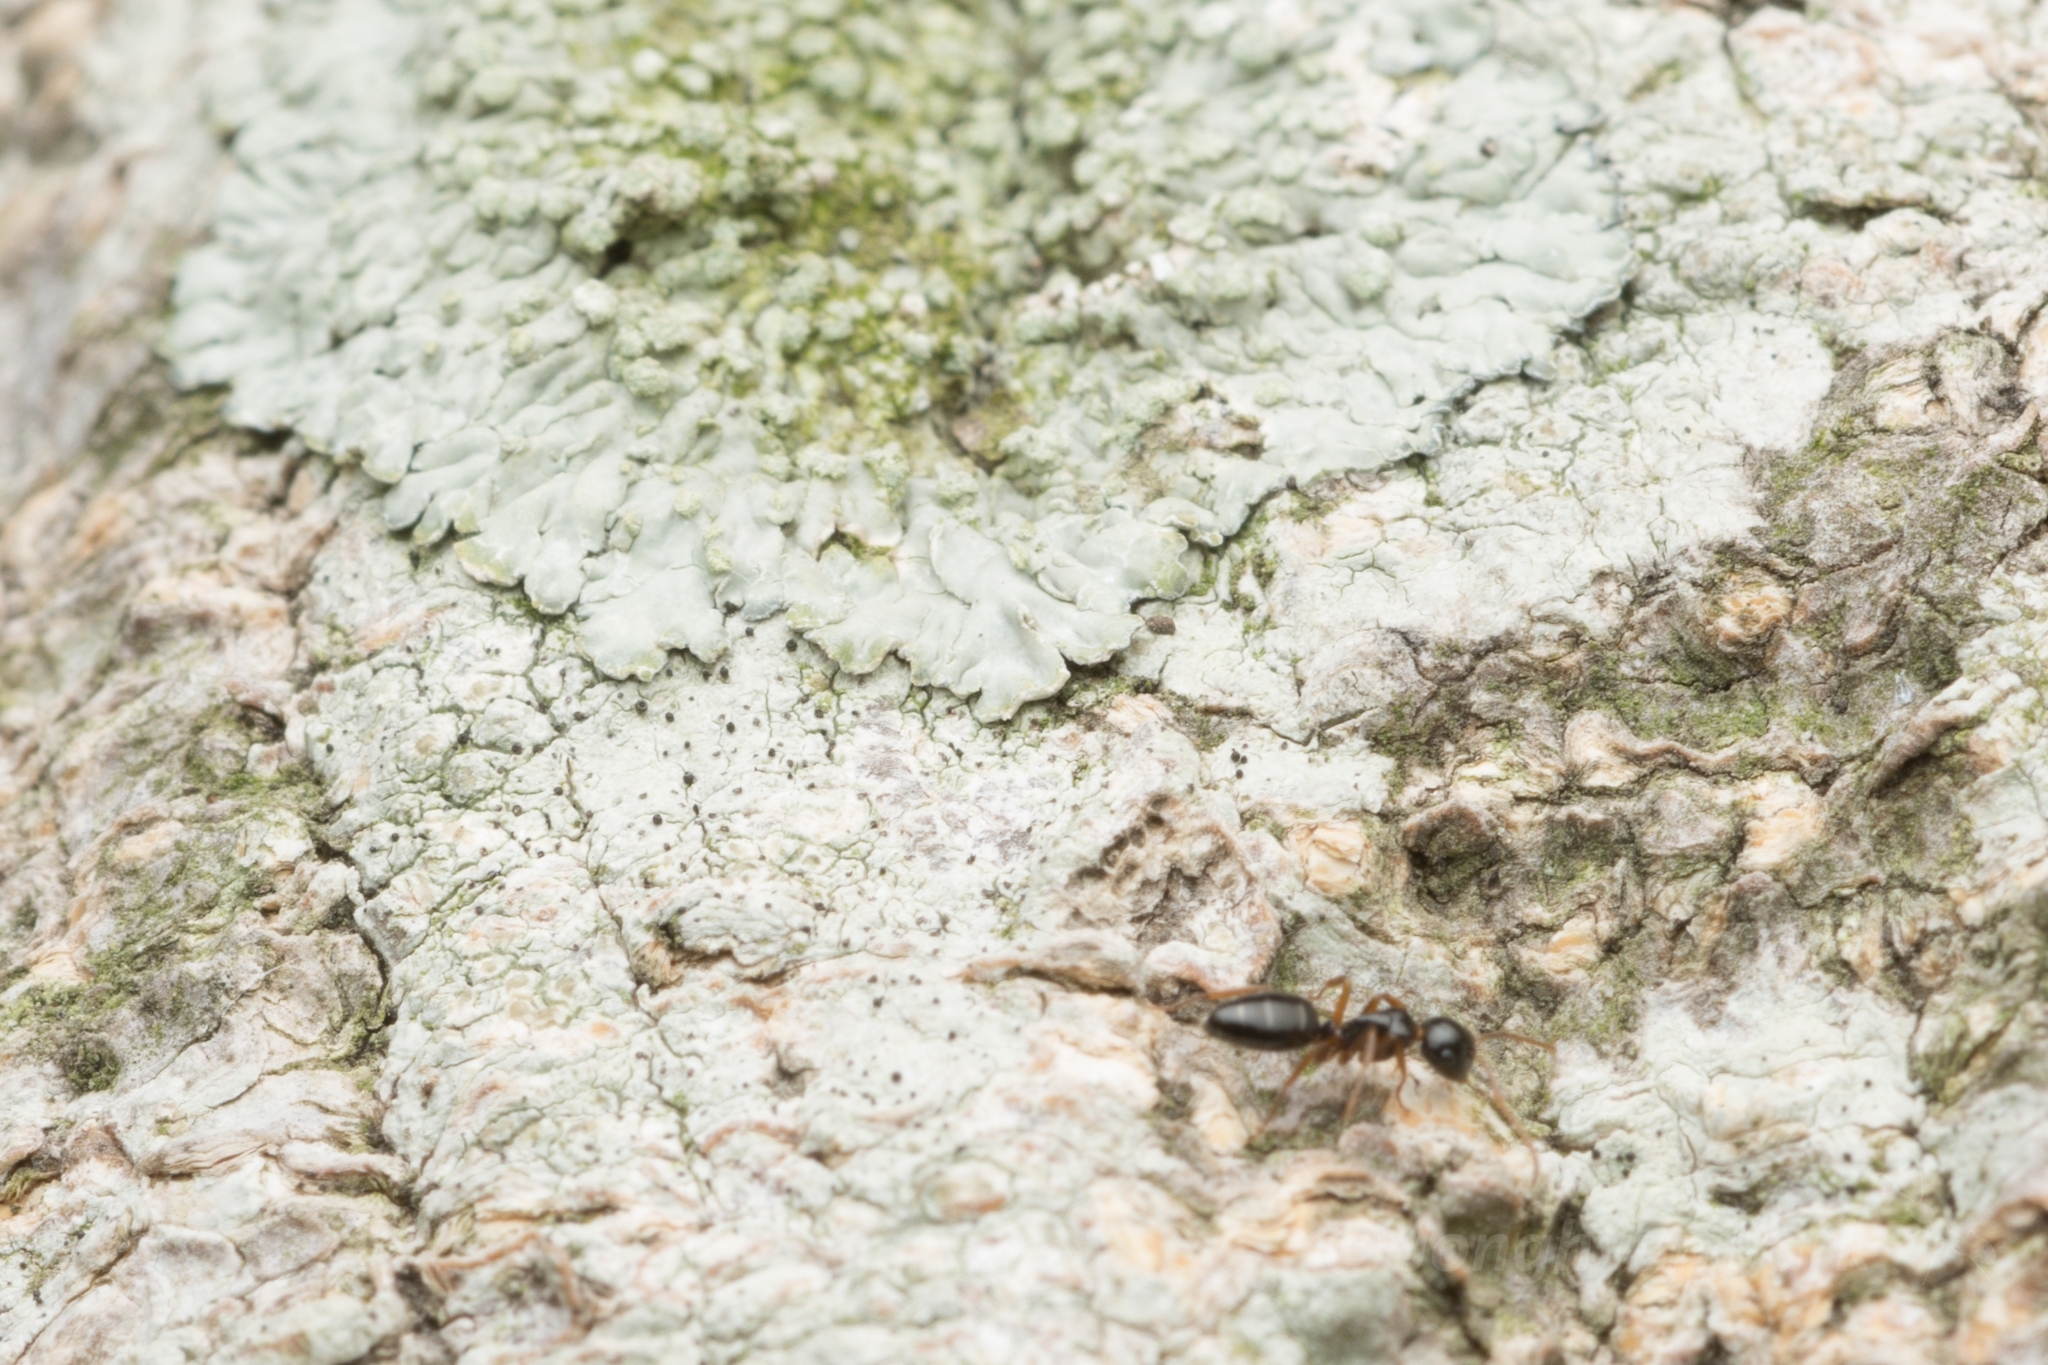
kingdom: Animalia
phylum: Arthropoda
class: Insecta
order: Hymenoptera
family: Formicidae
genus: Camponotus
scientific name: Camponotus itoi
